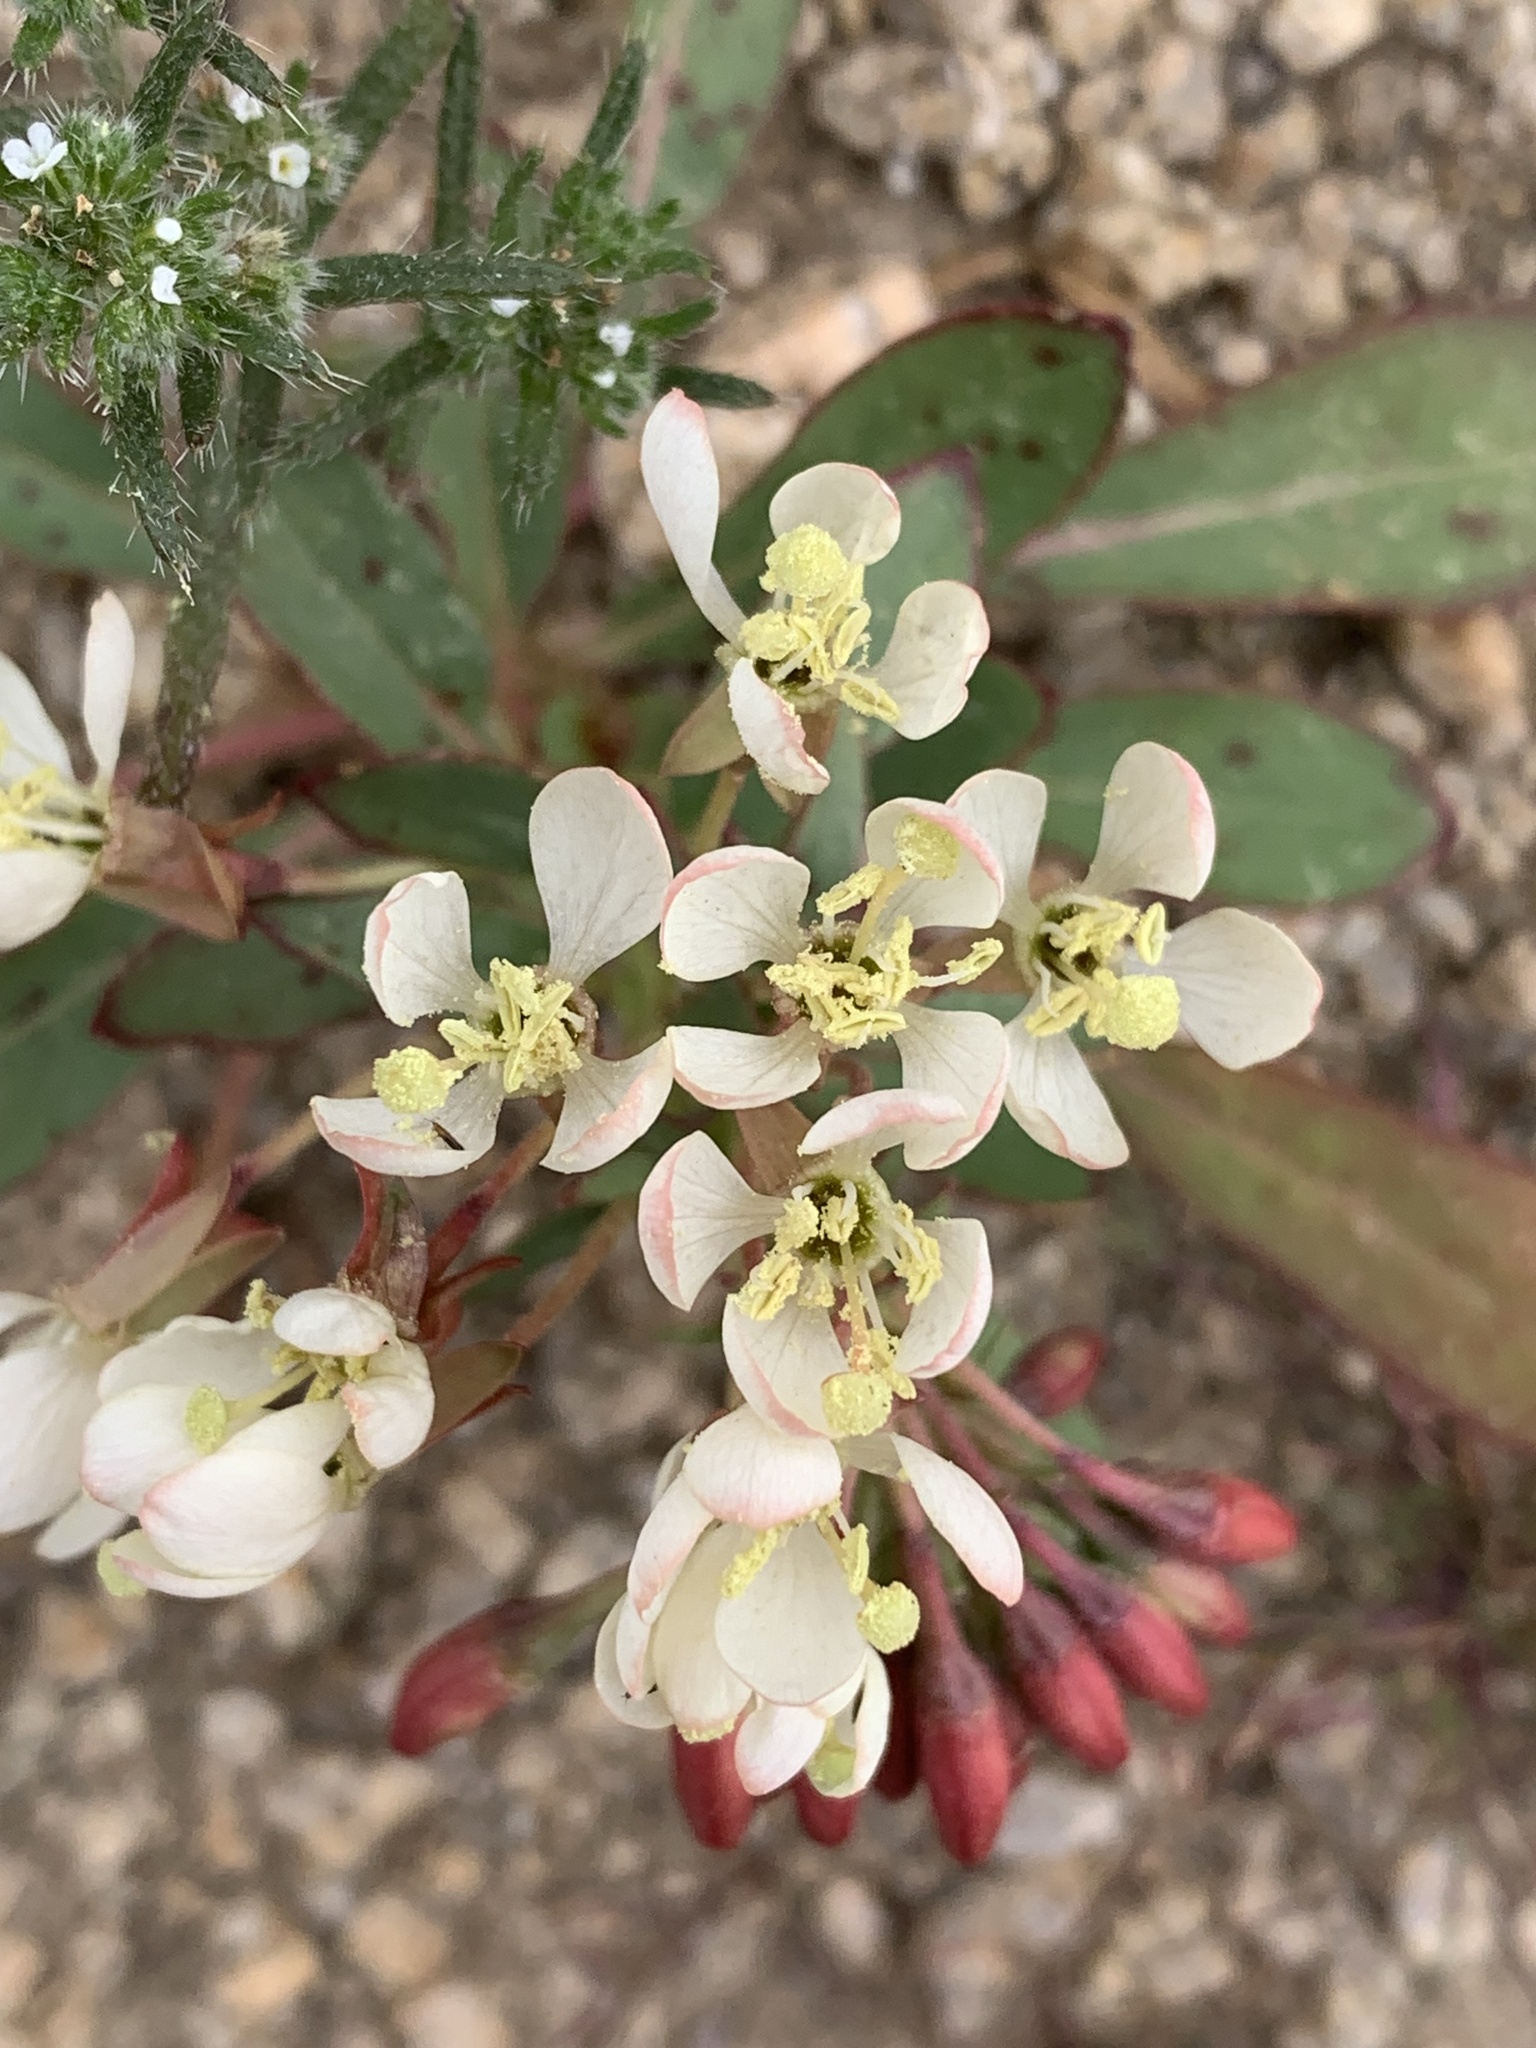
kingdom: Plantae
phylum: Tracheophyta
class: Magnoliopsida
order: Myrtales
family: Onagraceae
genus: Eremothera
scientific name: Eremothera boothii
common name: Booth's evening primrose
